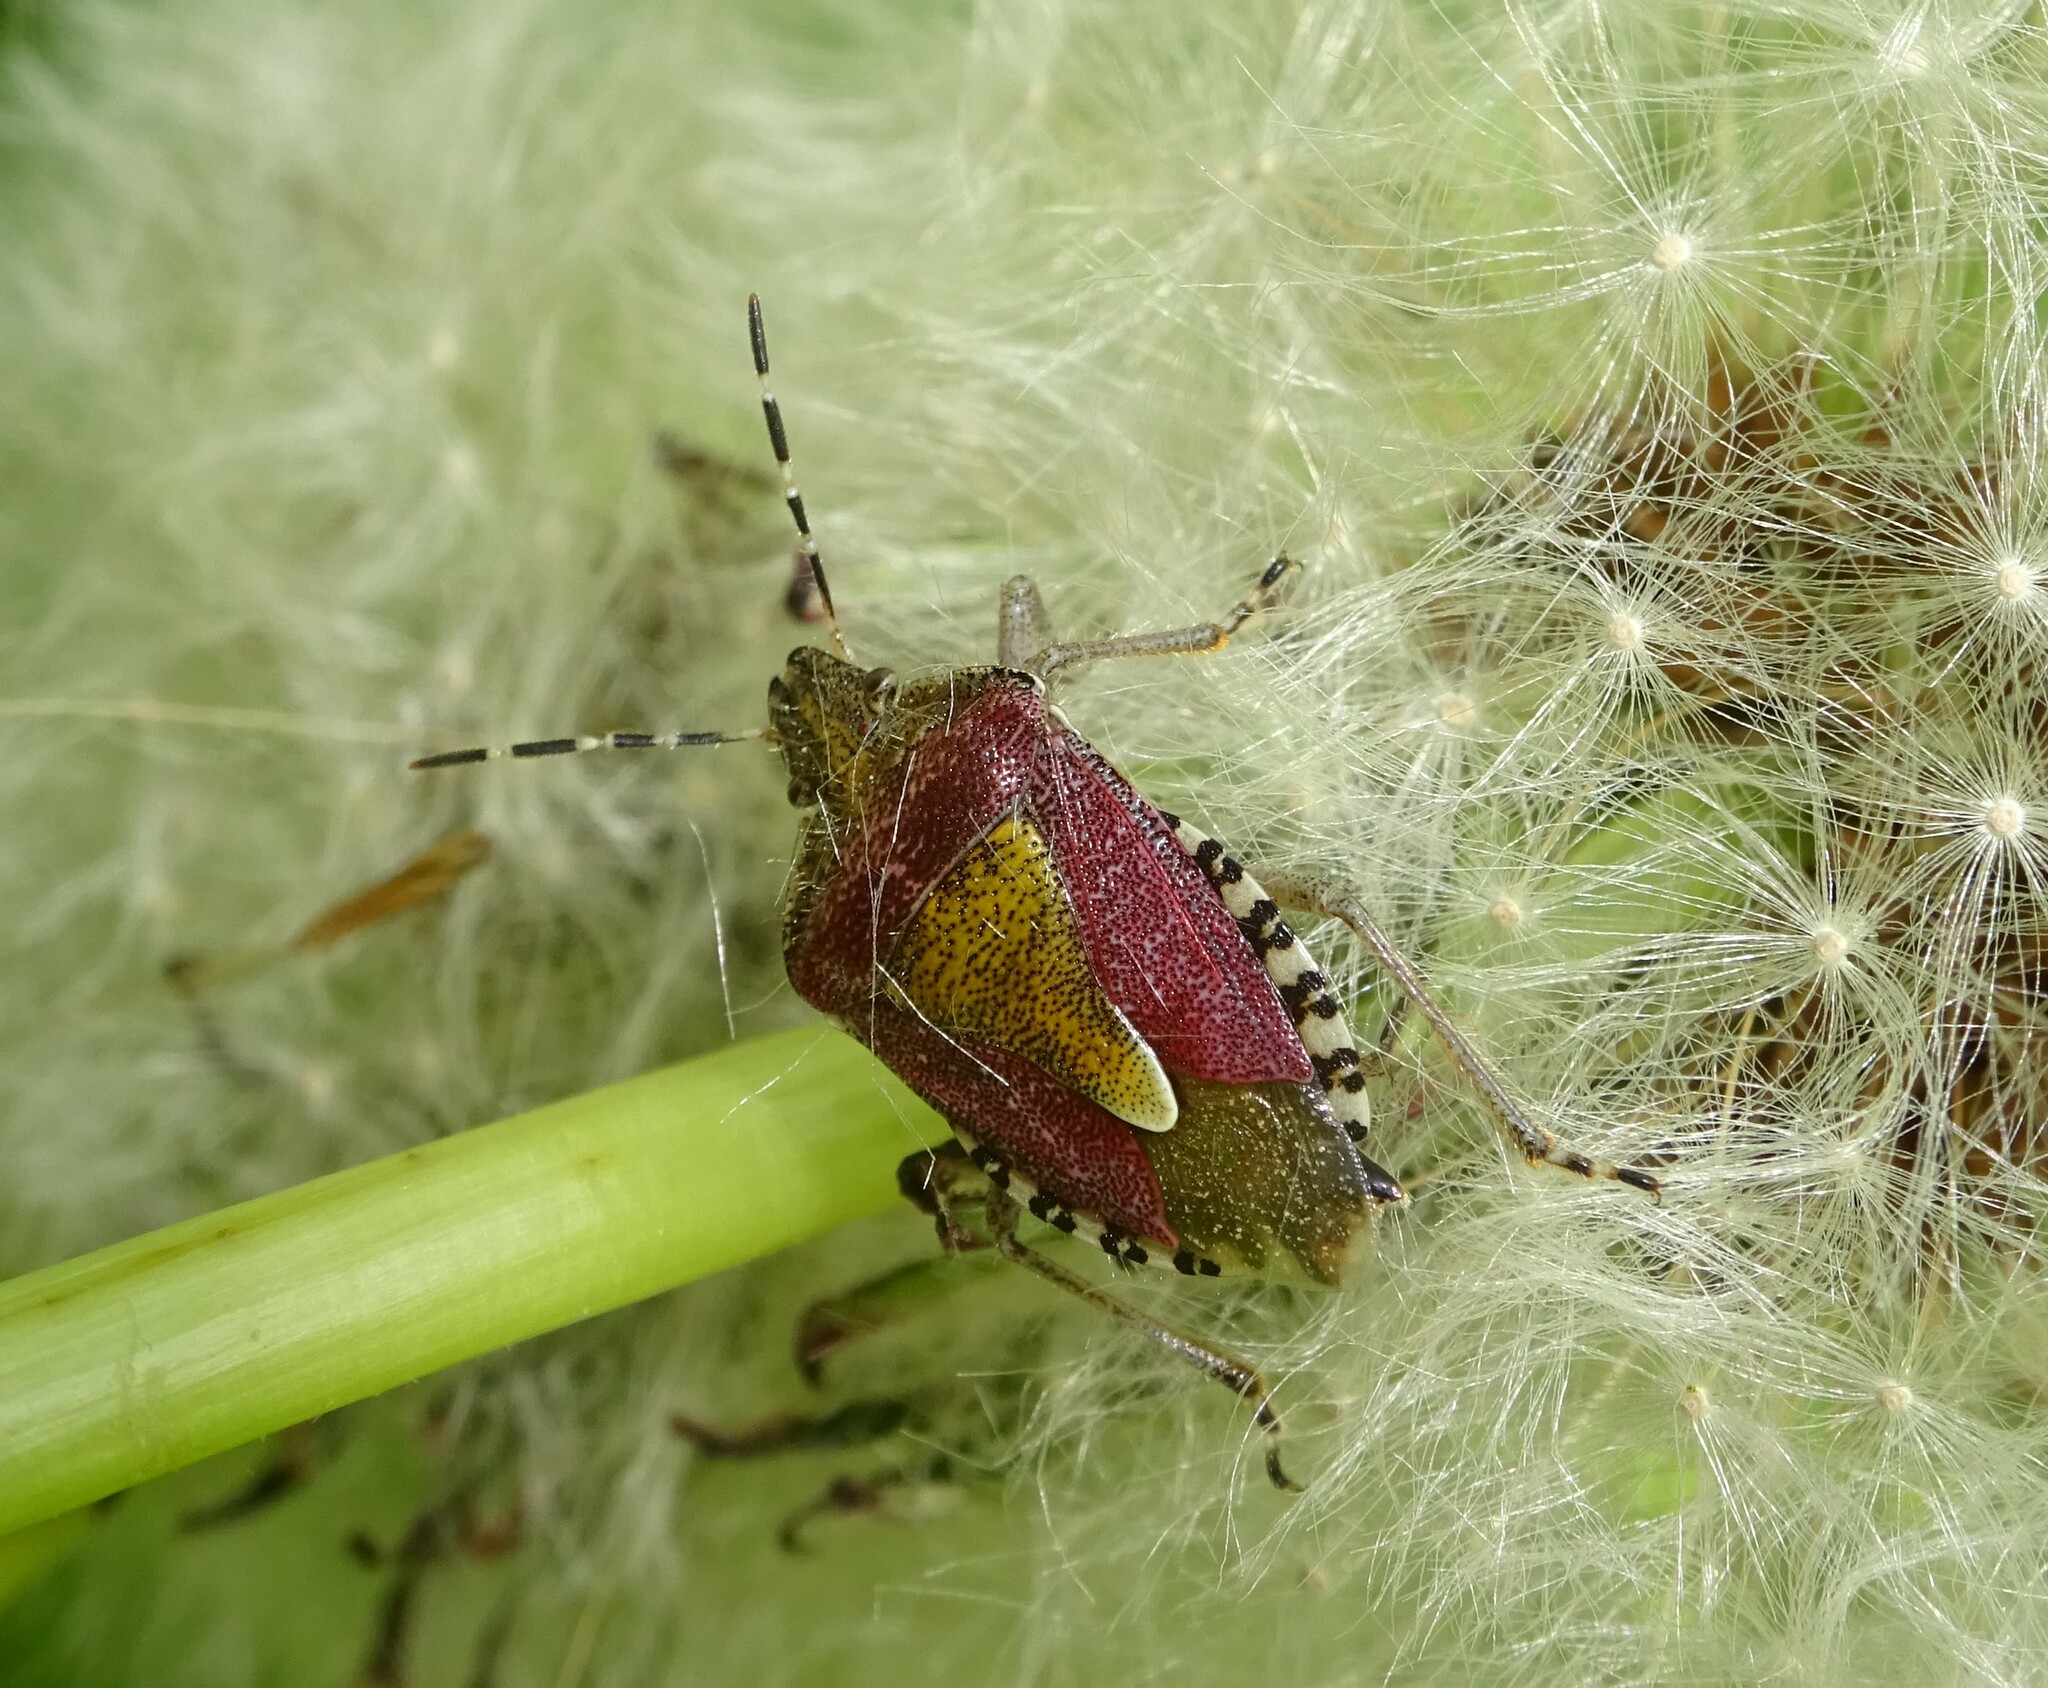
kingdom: Animalia
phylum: Arthropoda
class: Insecta
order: Hemiptera
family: Pentatomidae
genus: Dolycoris
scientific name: Dolycoris baccarum
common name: Sloe bug
